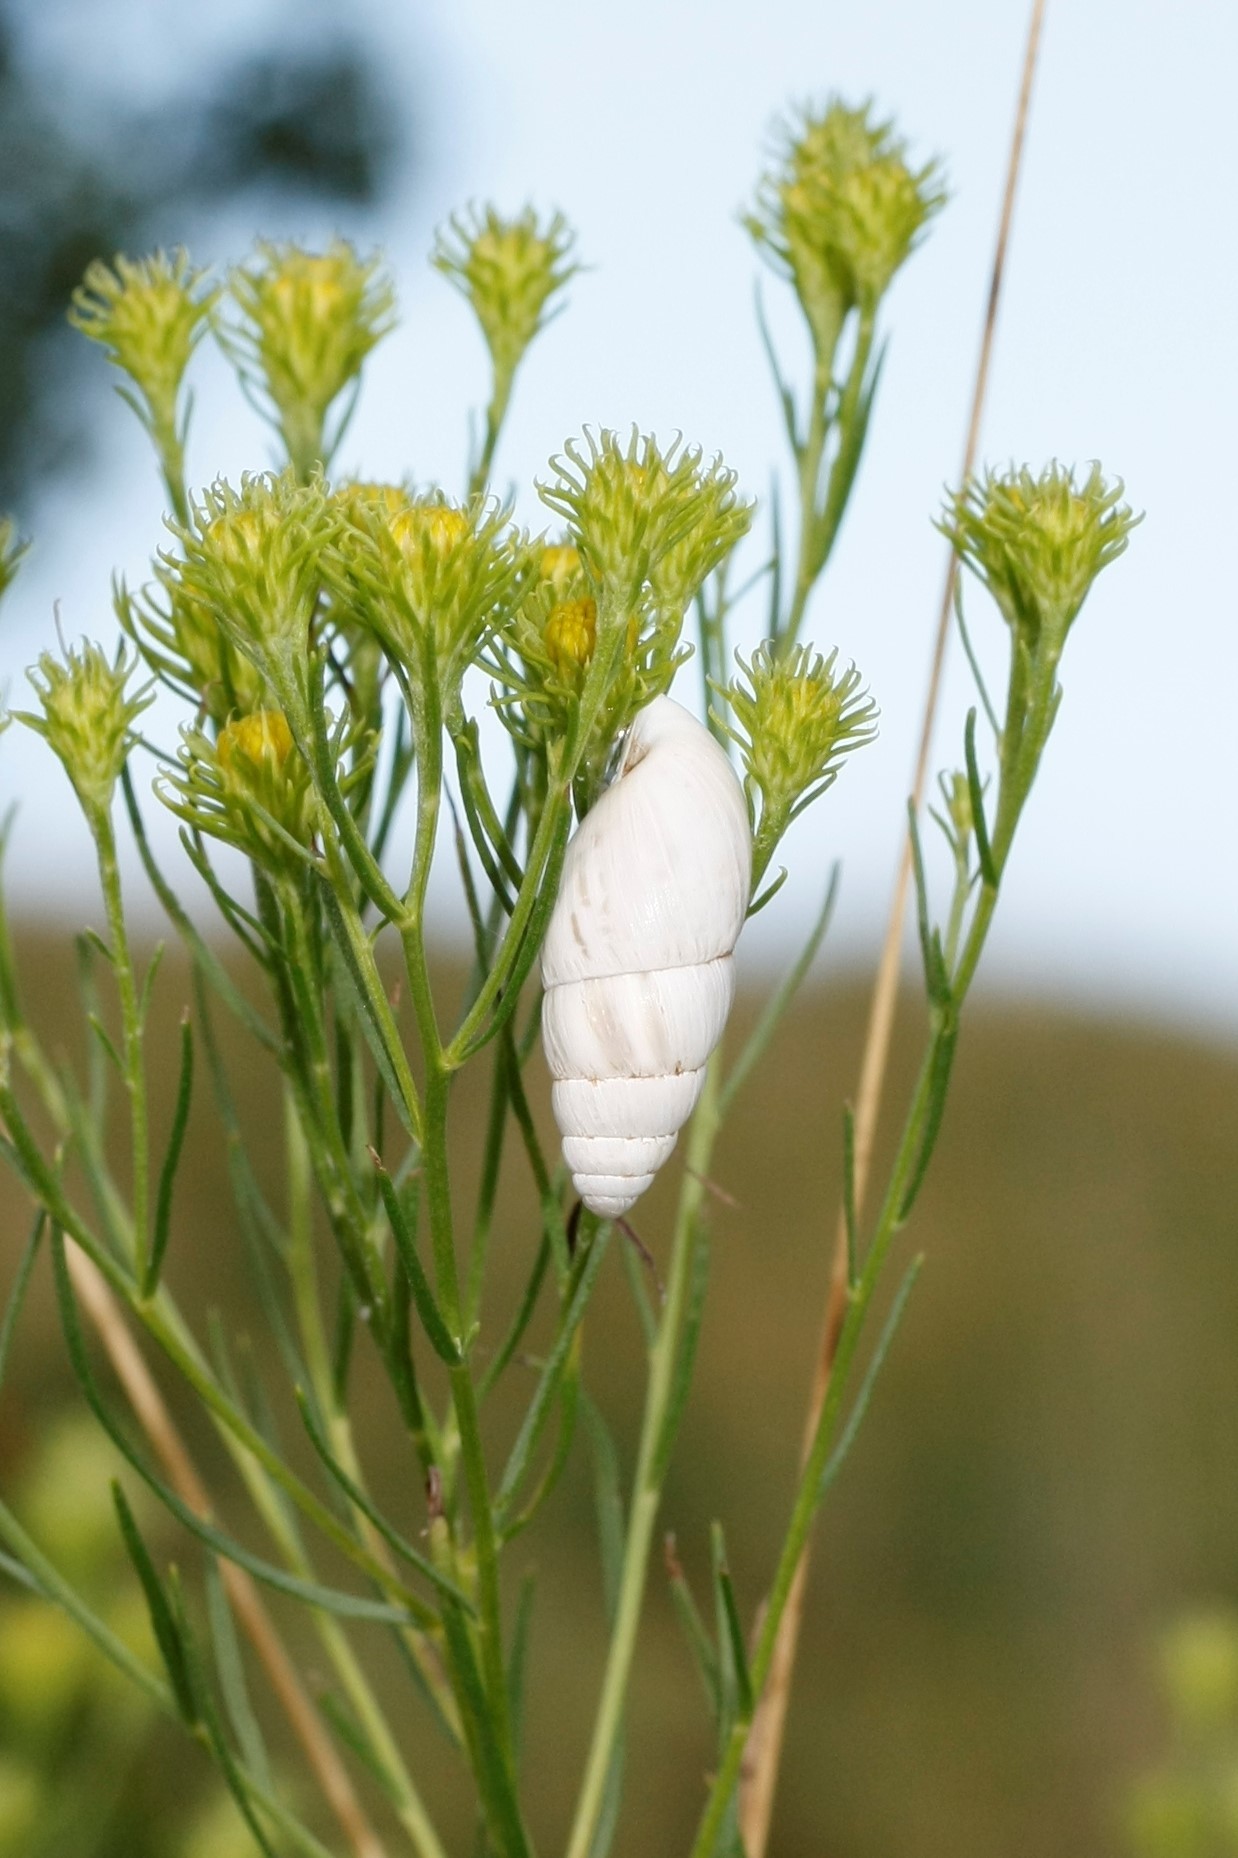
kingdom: Animalia
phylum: Mollusca
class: Gastropoda
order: Stylommatophora
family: Enidae
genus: Zebrina
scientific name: Zebrina detrita
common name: Large bulin
